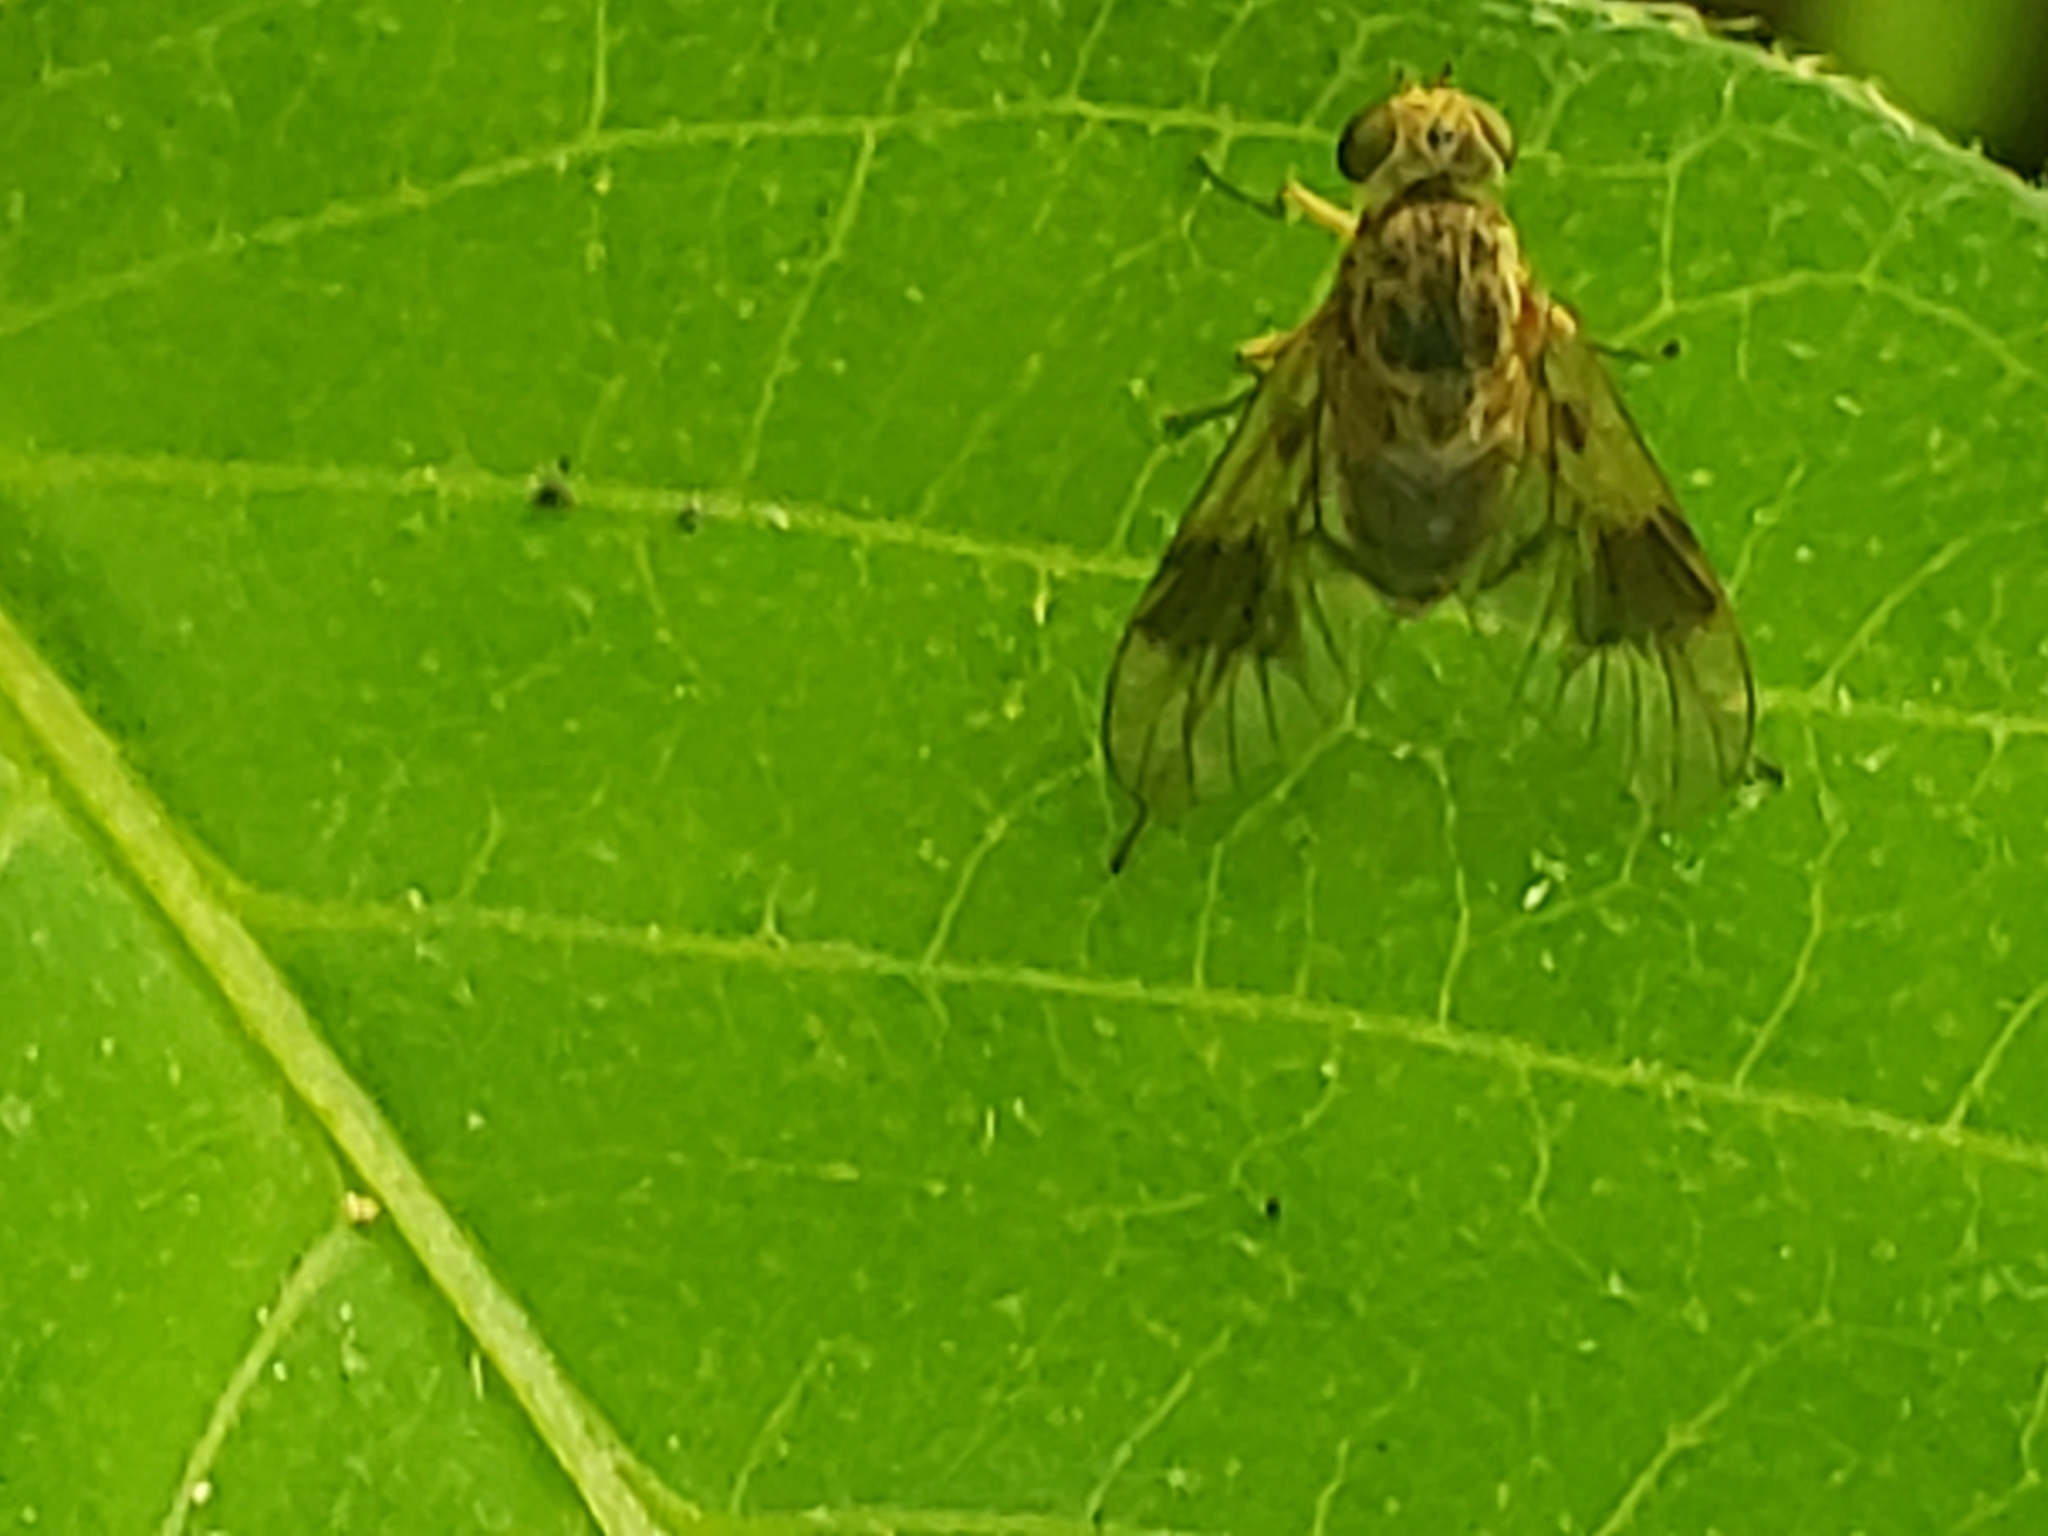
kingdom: Animalia
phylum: Arthropoda
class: Insecta
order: Diptera
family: Rhagionidae
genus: Chrysopilus
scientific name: Chrysopilus quadratus
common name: Quadrate snipe fly
